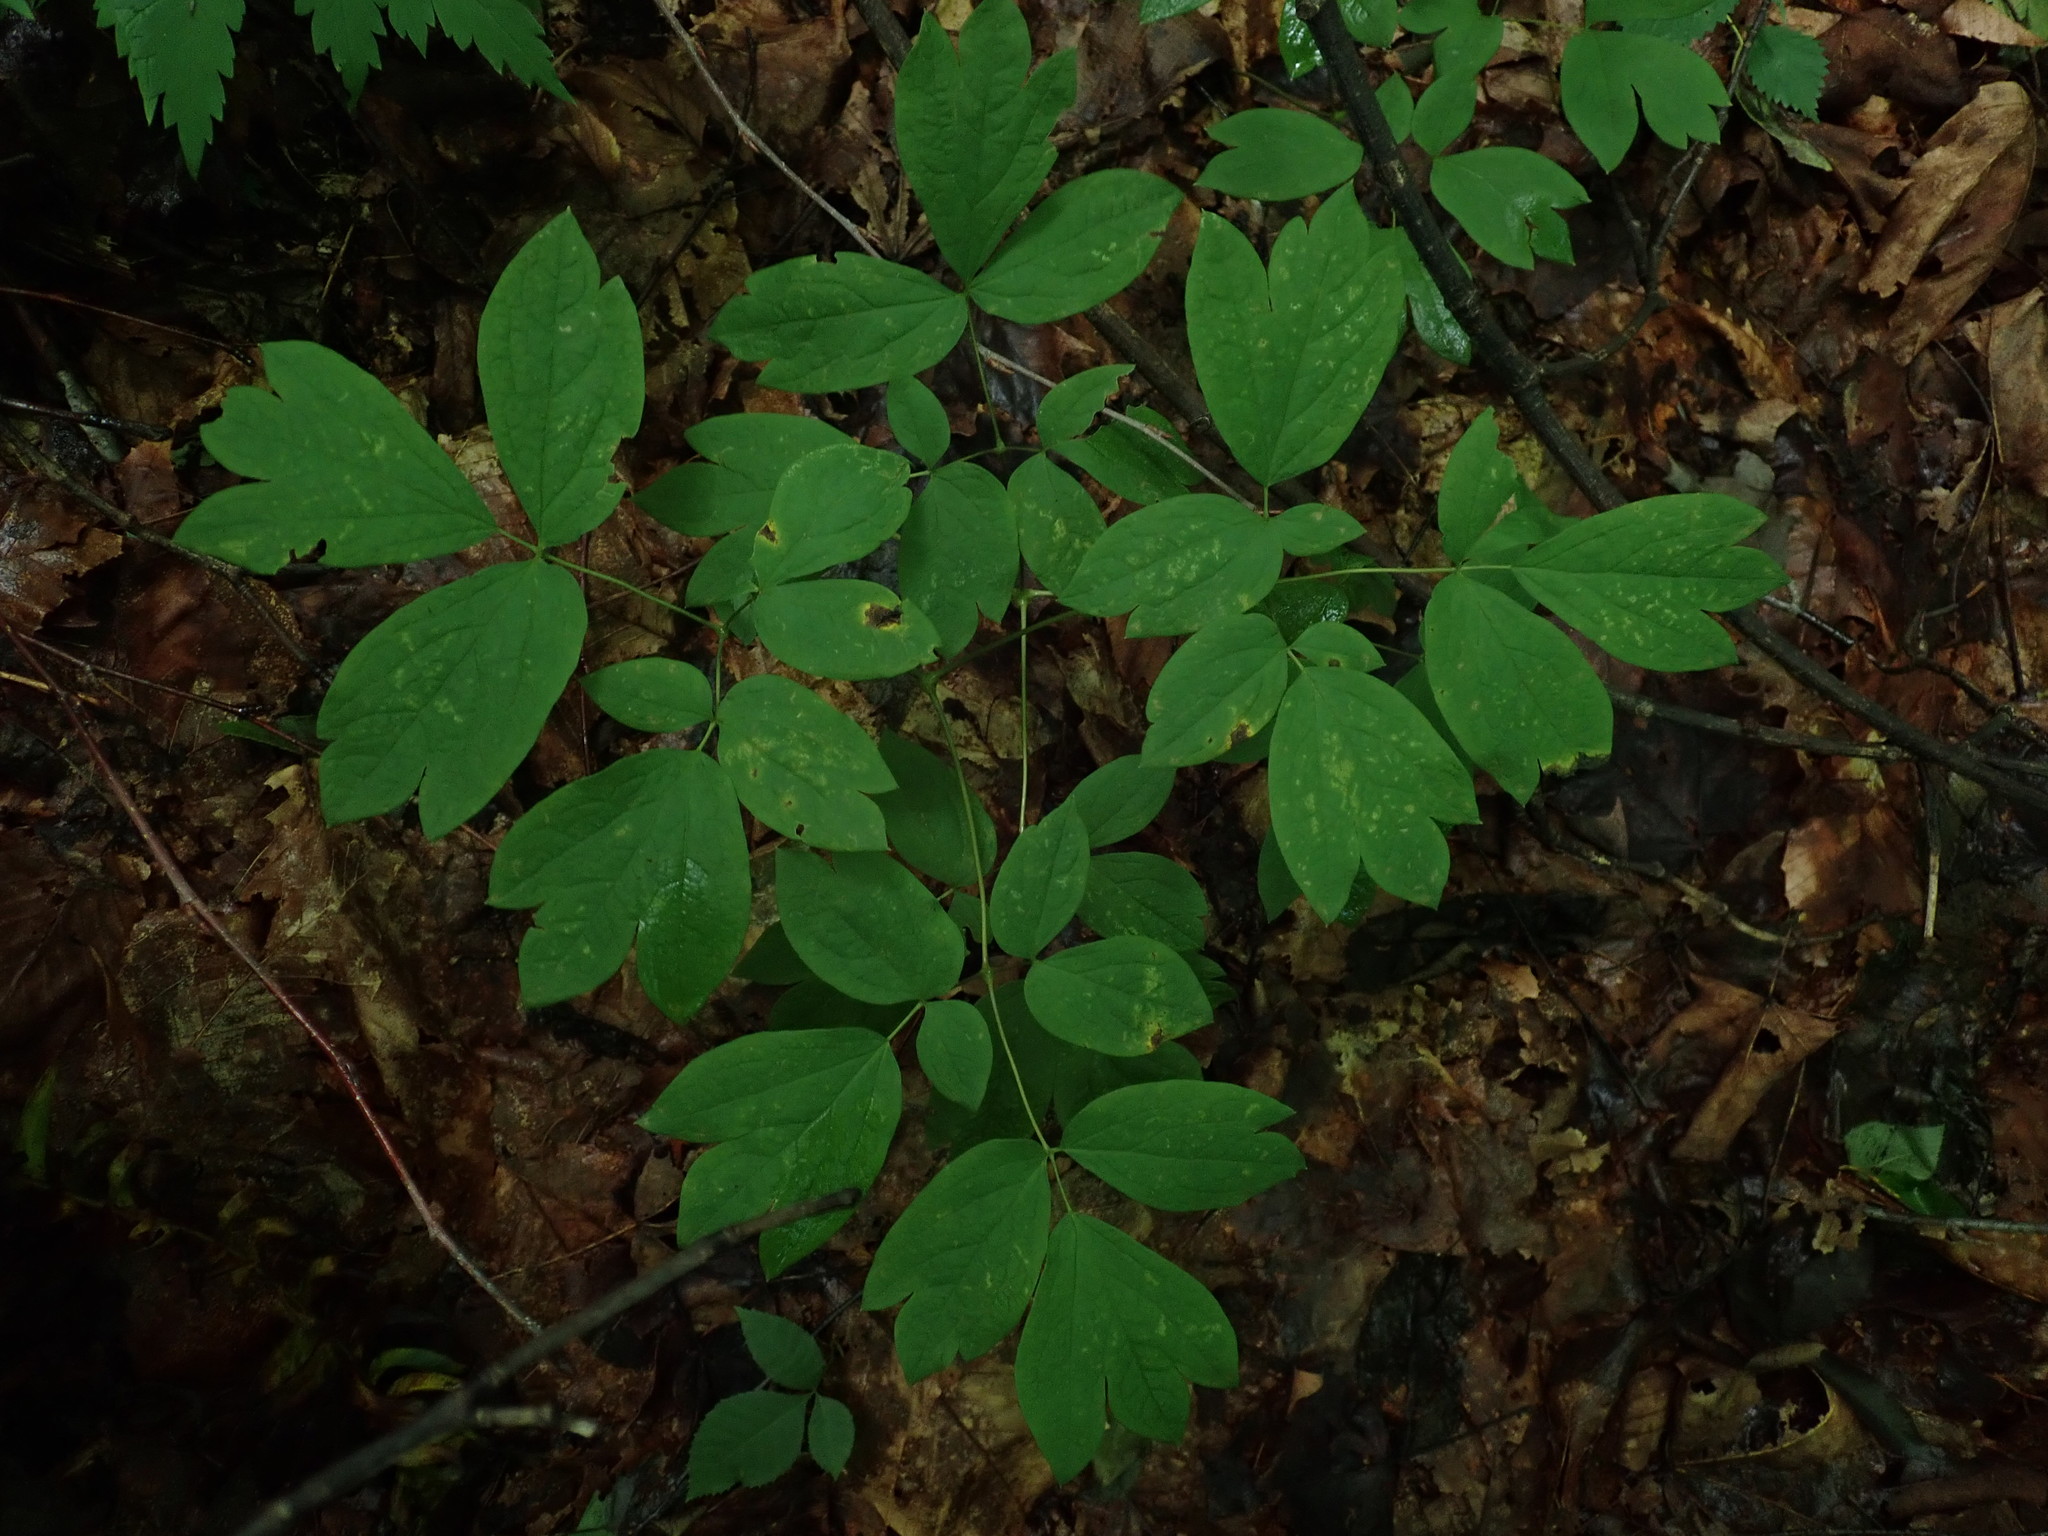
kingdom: Plantae
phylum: Tracheophyta
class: Magnoliopsida
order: Ranunculales
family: Berberidaceae
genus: Caulophyllum
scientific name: Caulophyllum
